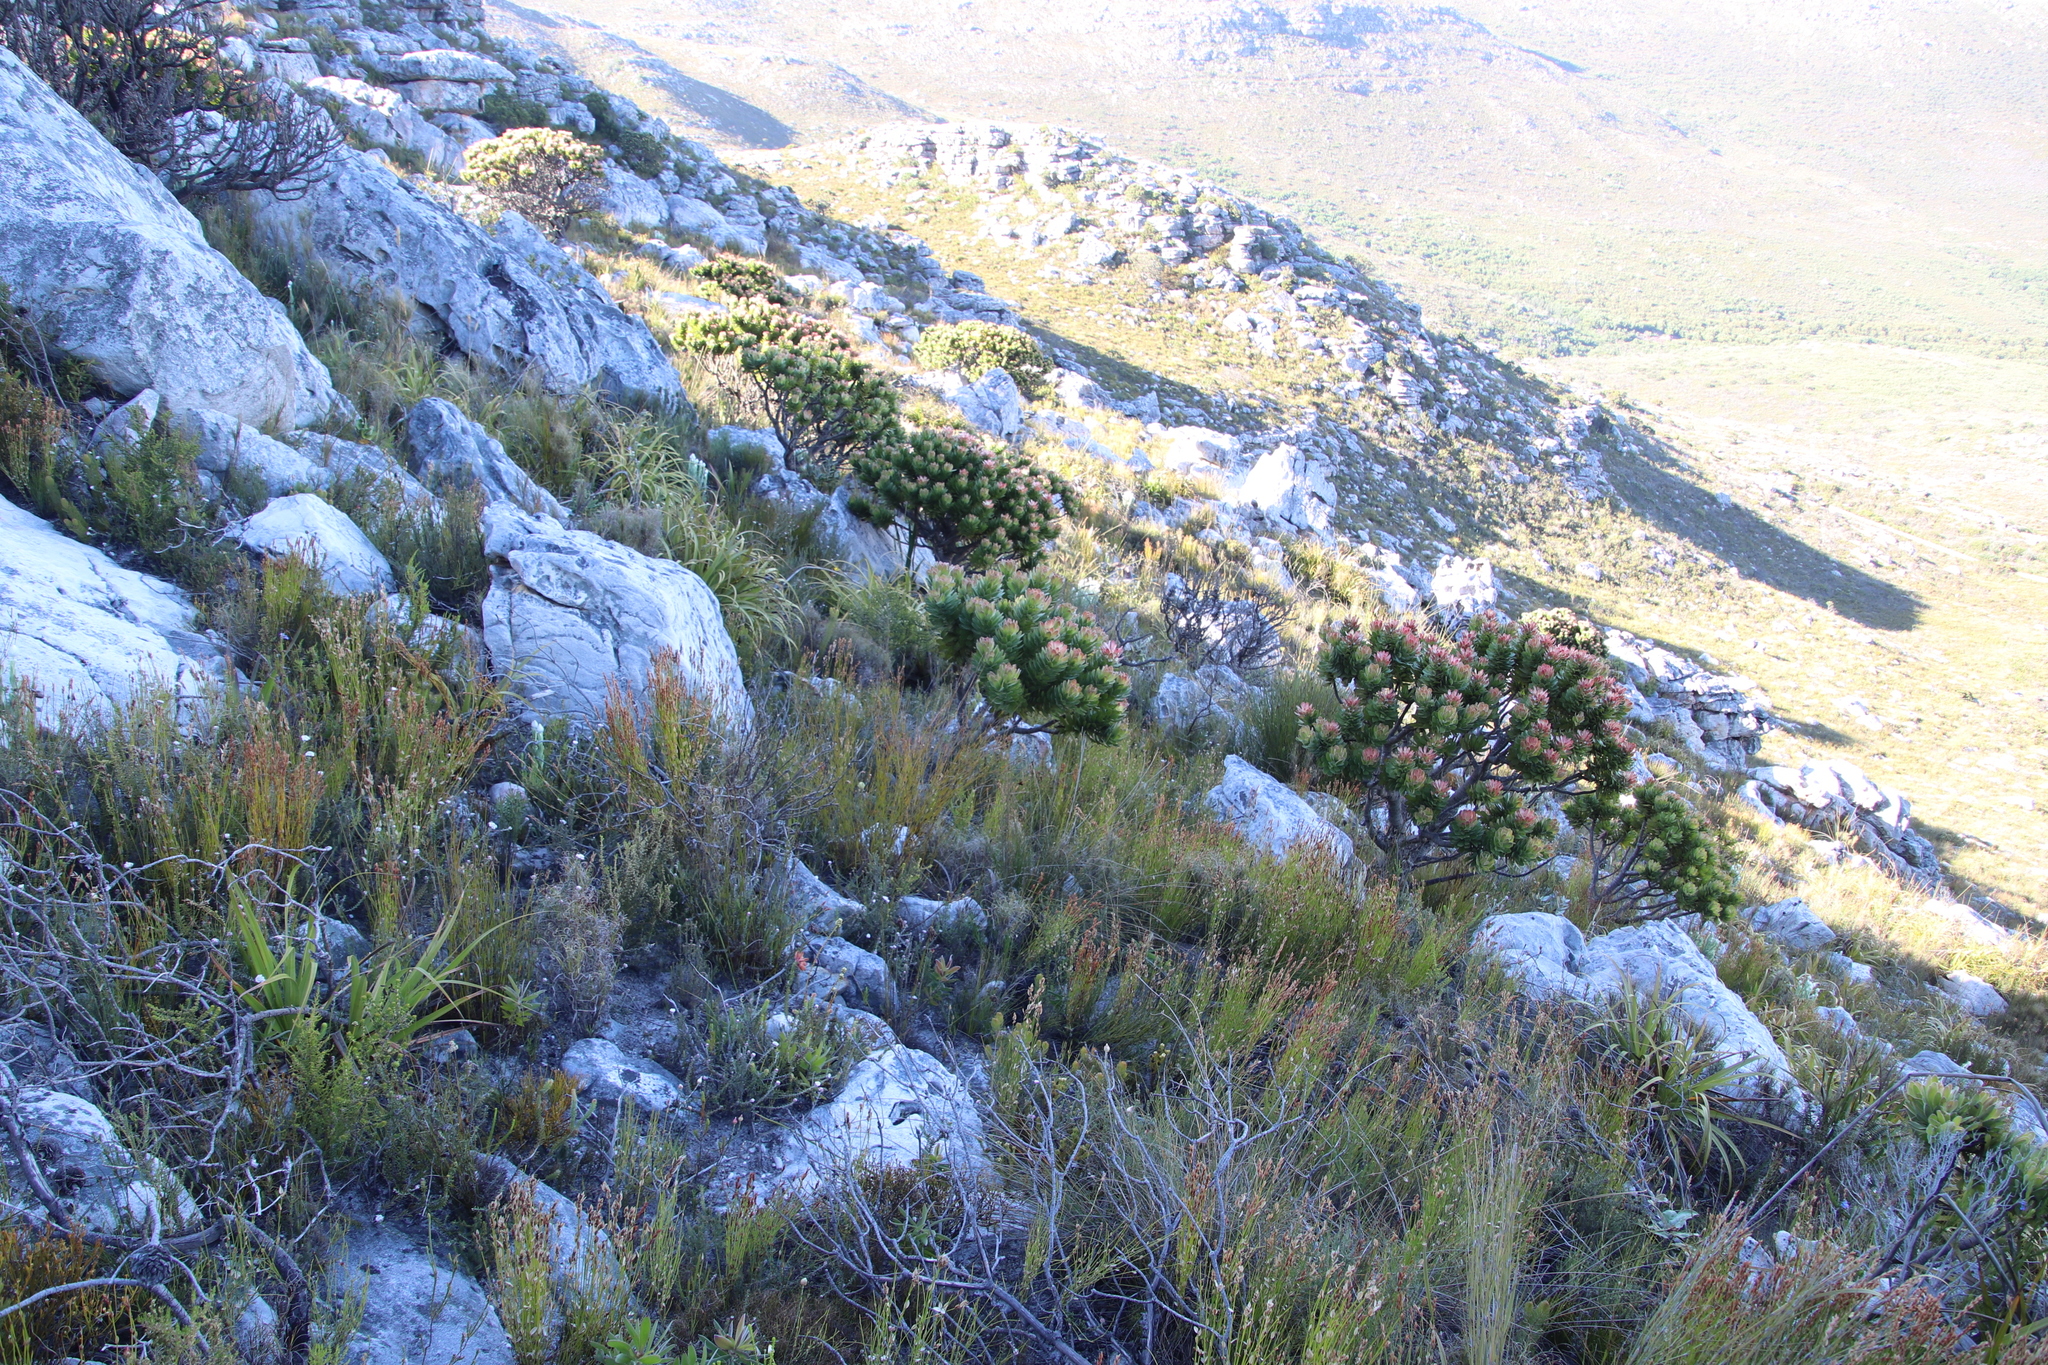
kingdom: Plantae
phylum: Tracheophyta
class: Magnoliopsida
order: Proteales
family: Proteaceae
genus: Mimetes
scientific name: Mimetes fimbriifolius
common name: Fringed bottlebrush
